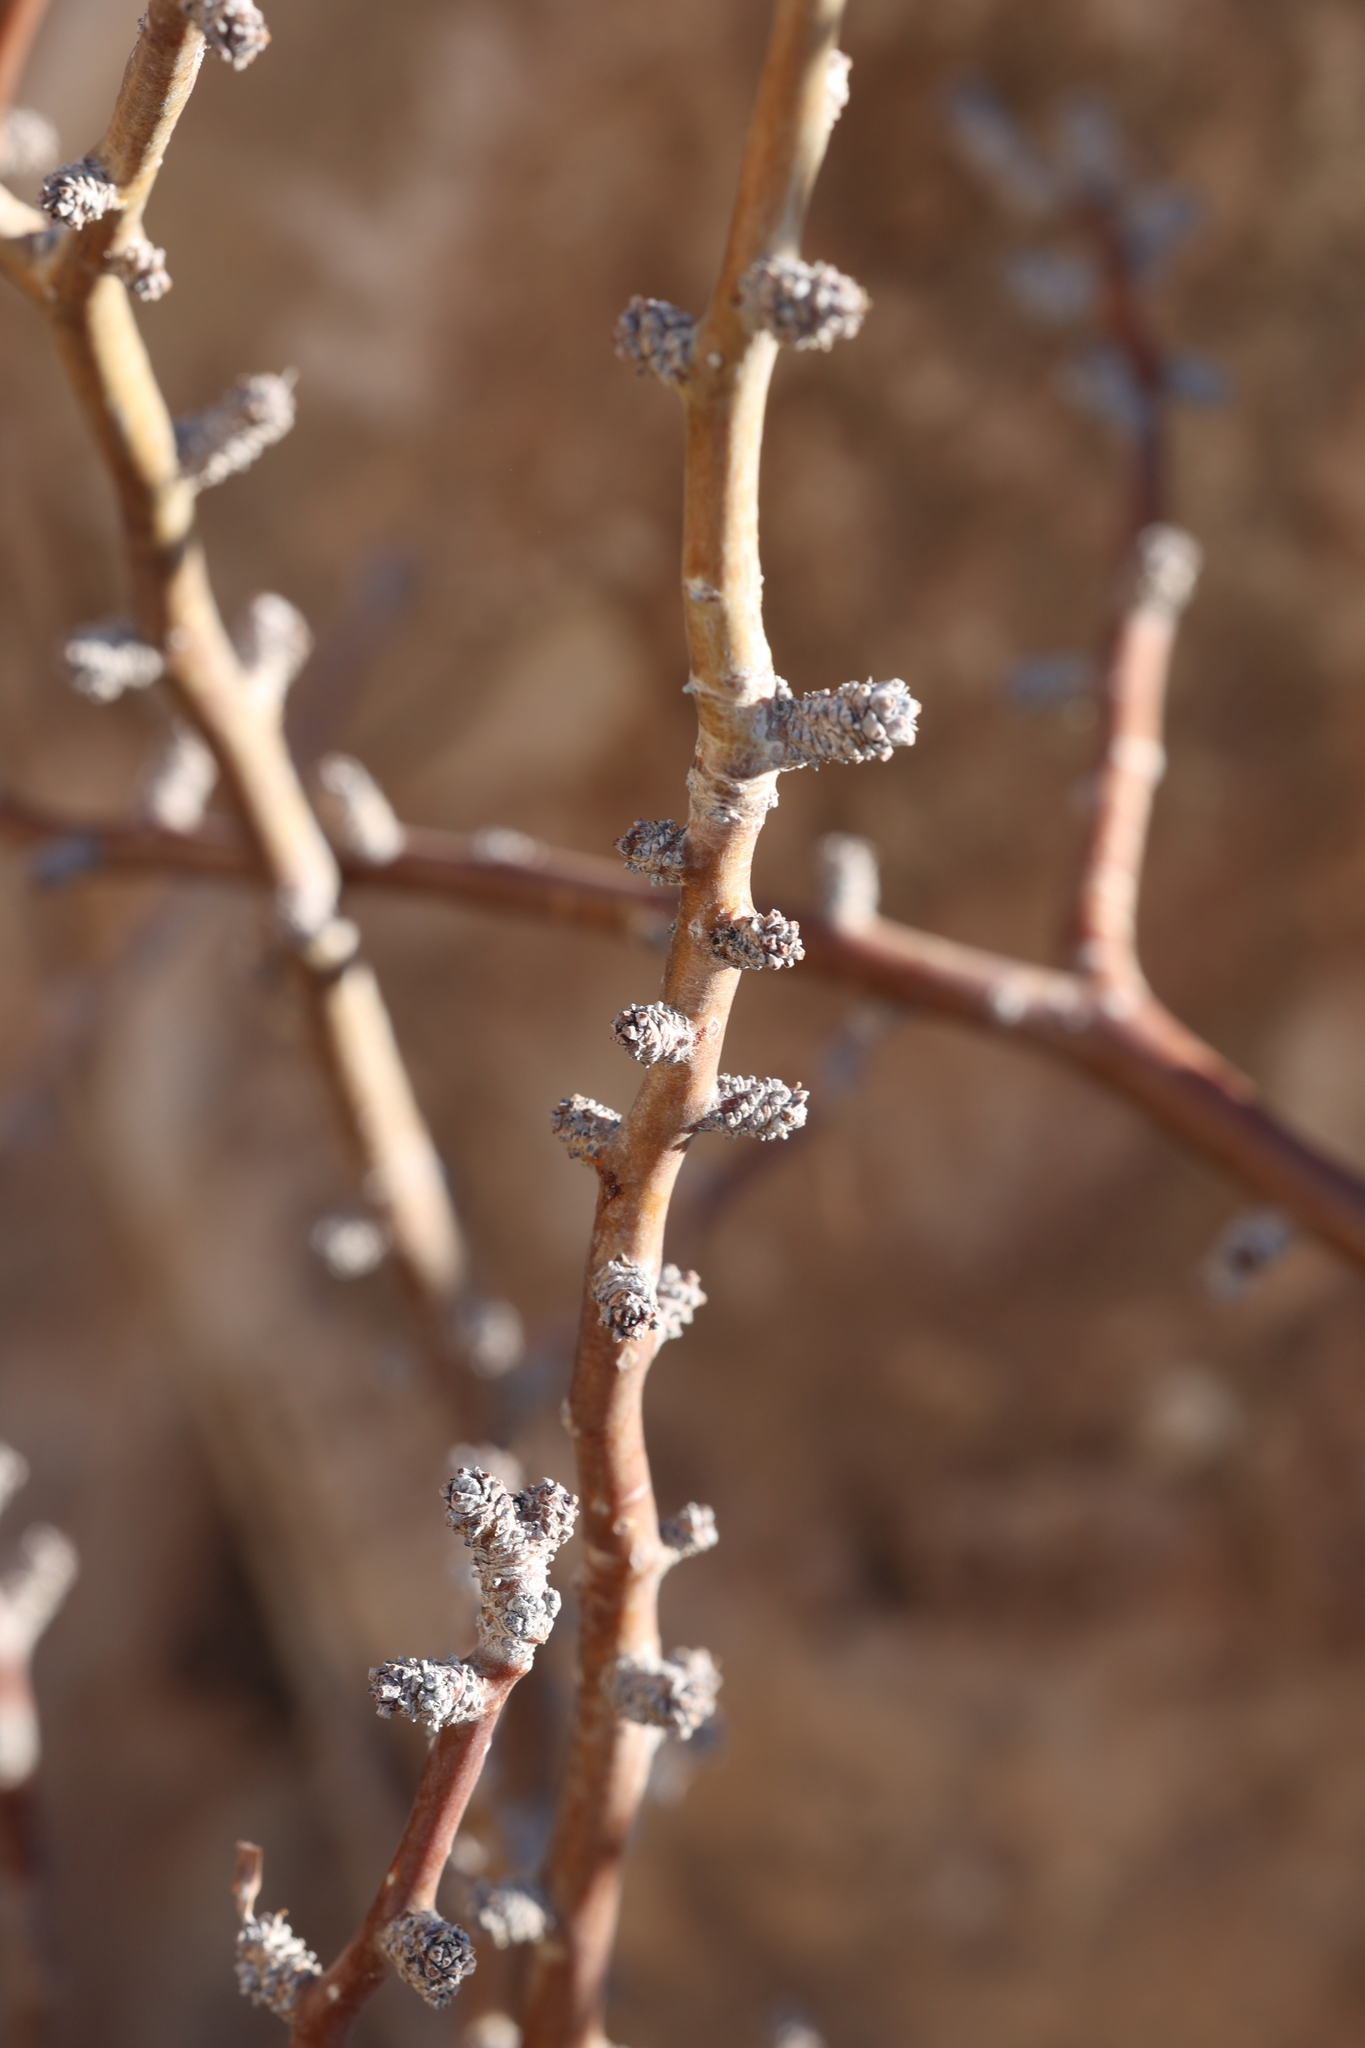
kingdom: Plantae
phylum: Tracheophyta
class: Magnoliopsida
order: Malpighiales
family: Euphorbiaceae
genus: Jatropha
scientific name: Jatropha dioica
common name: Leatherstem
